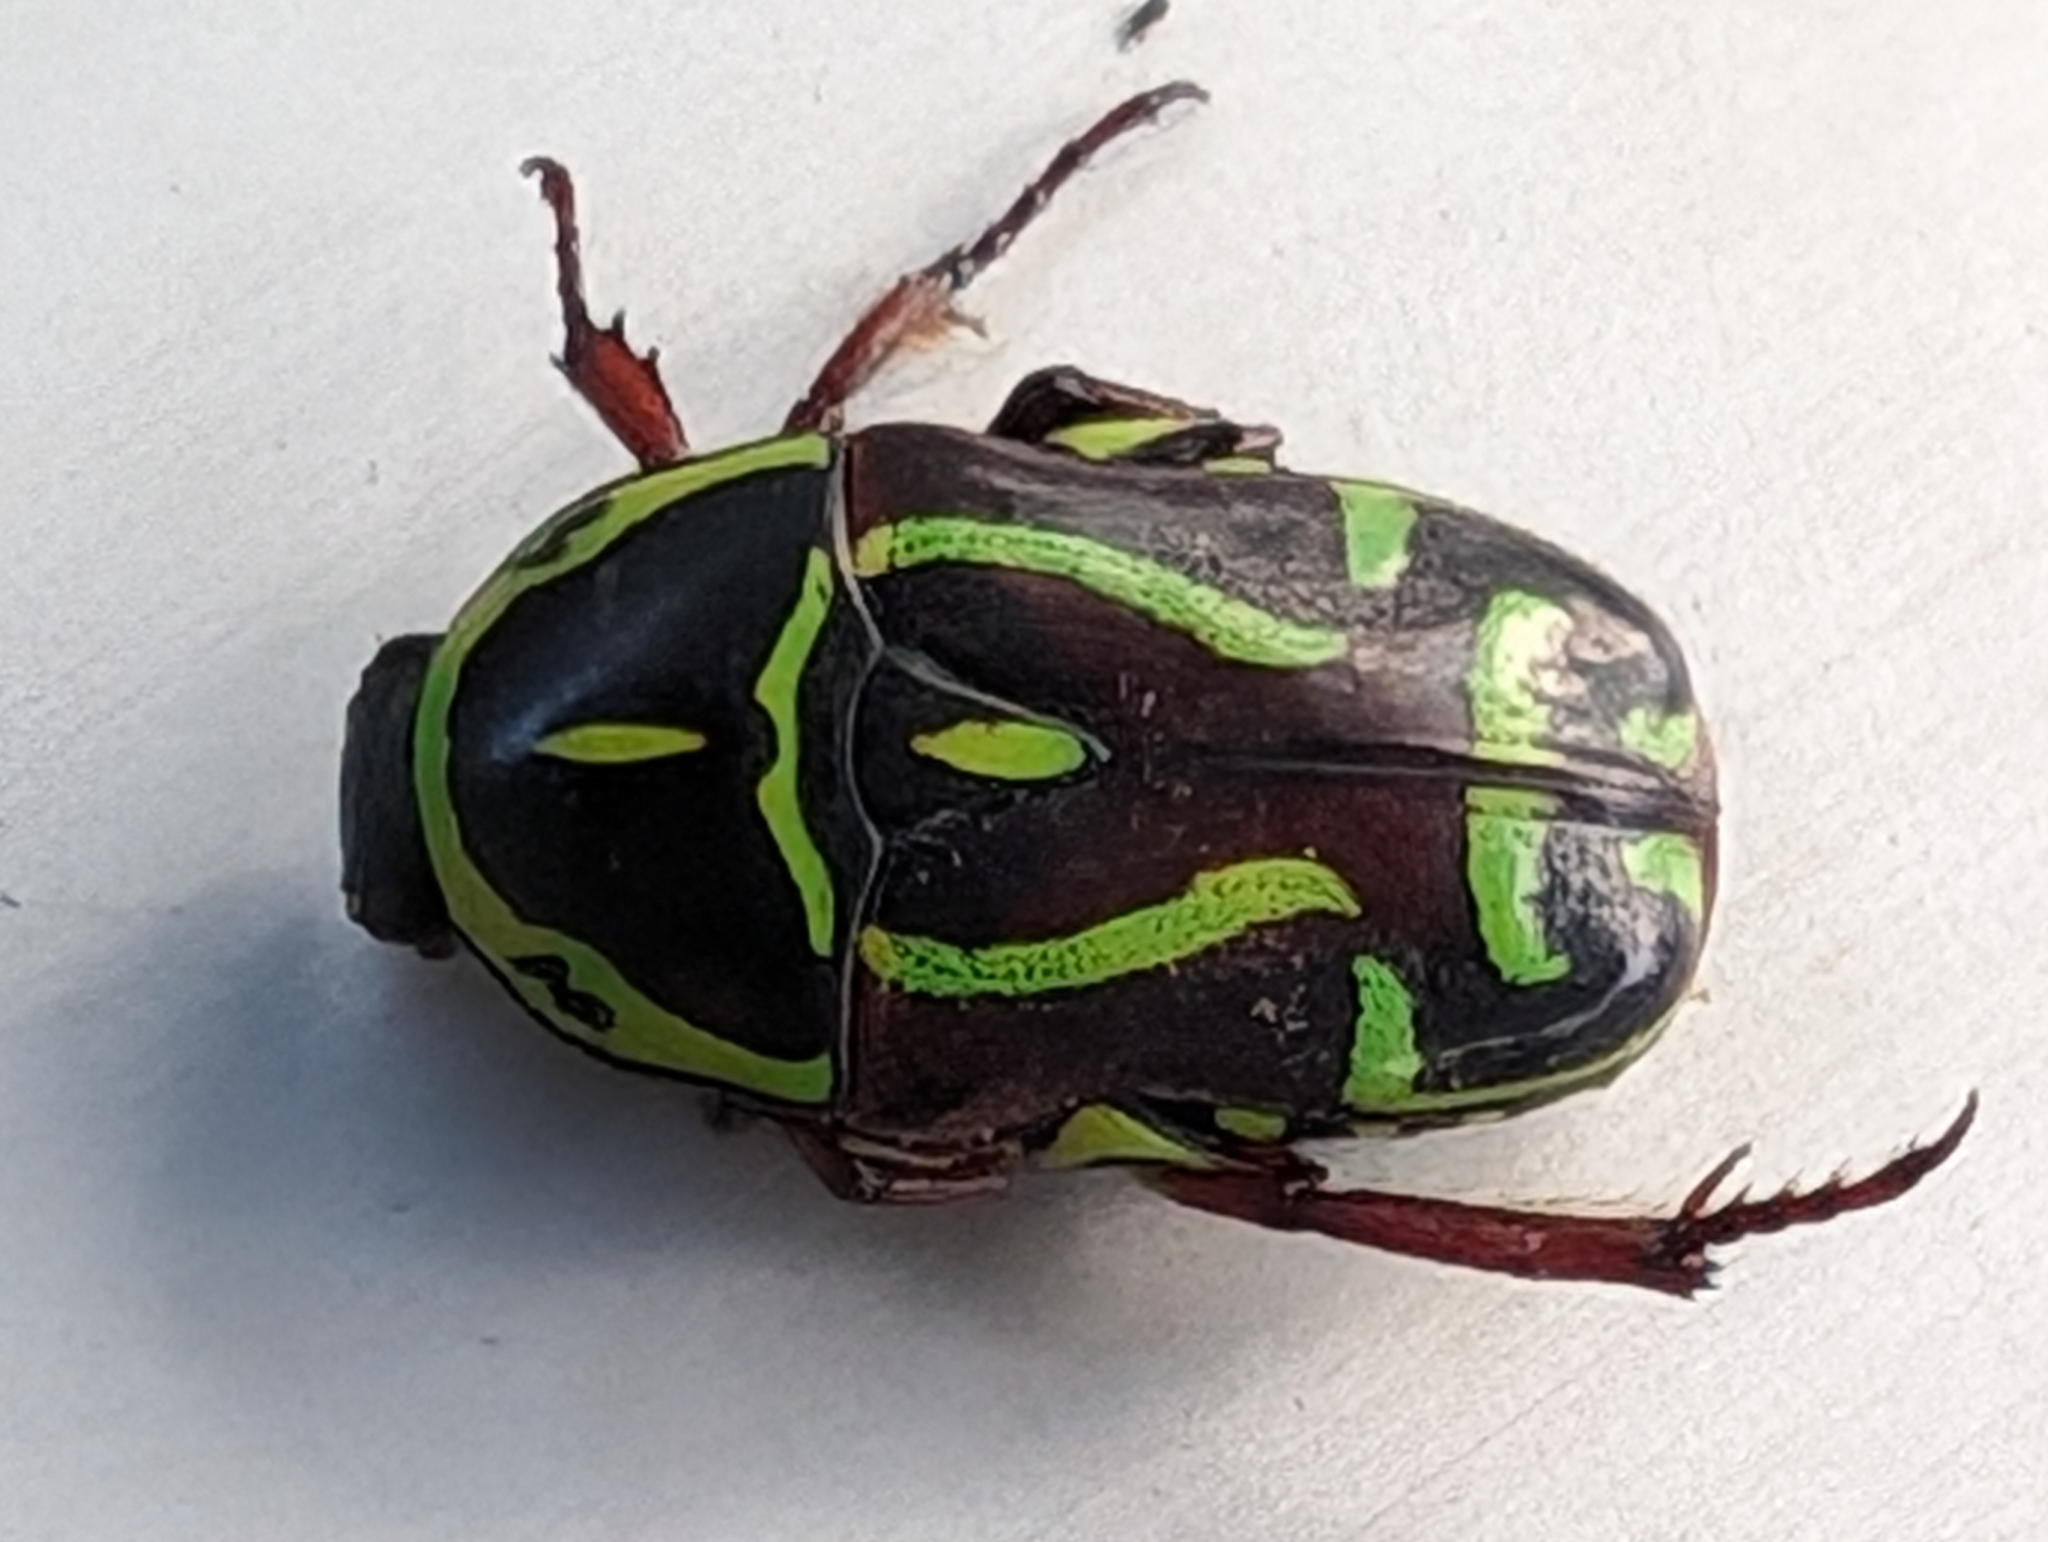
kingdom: Animalia
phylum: Arthropoda
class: Insecta
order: Coleoptera
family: Scarabaeidae
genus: Eupoecila
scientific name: Eupoecila australasiae
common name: Fiddler beetle
